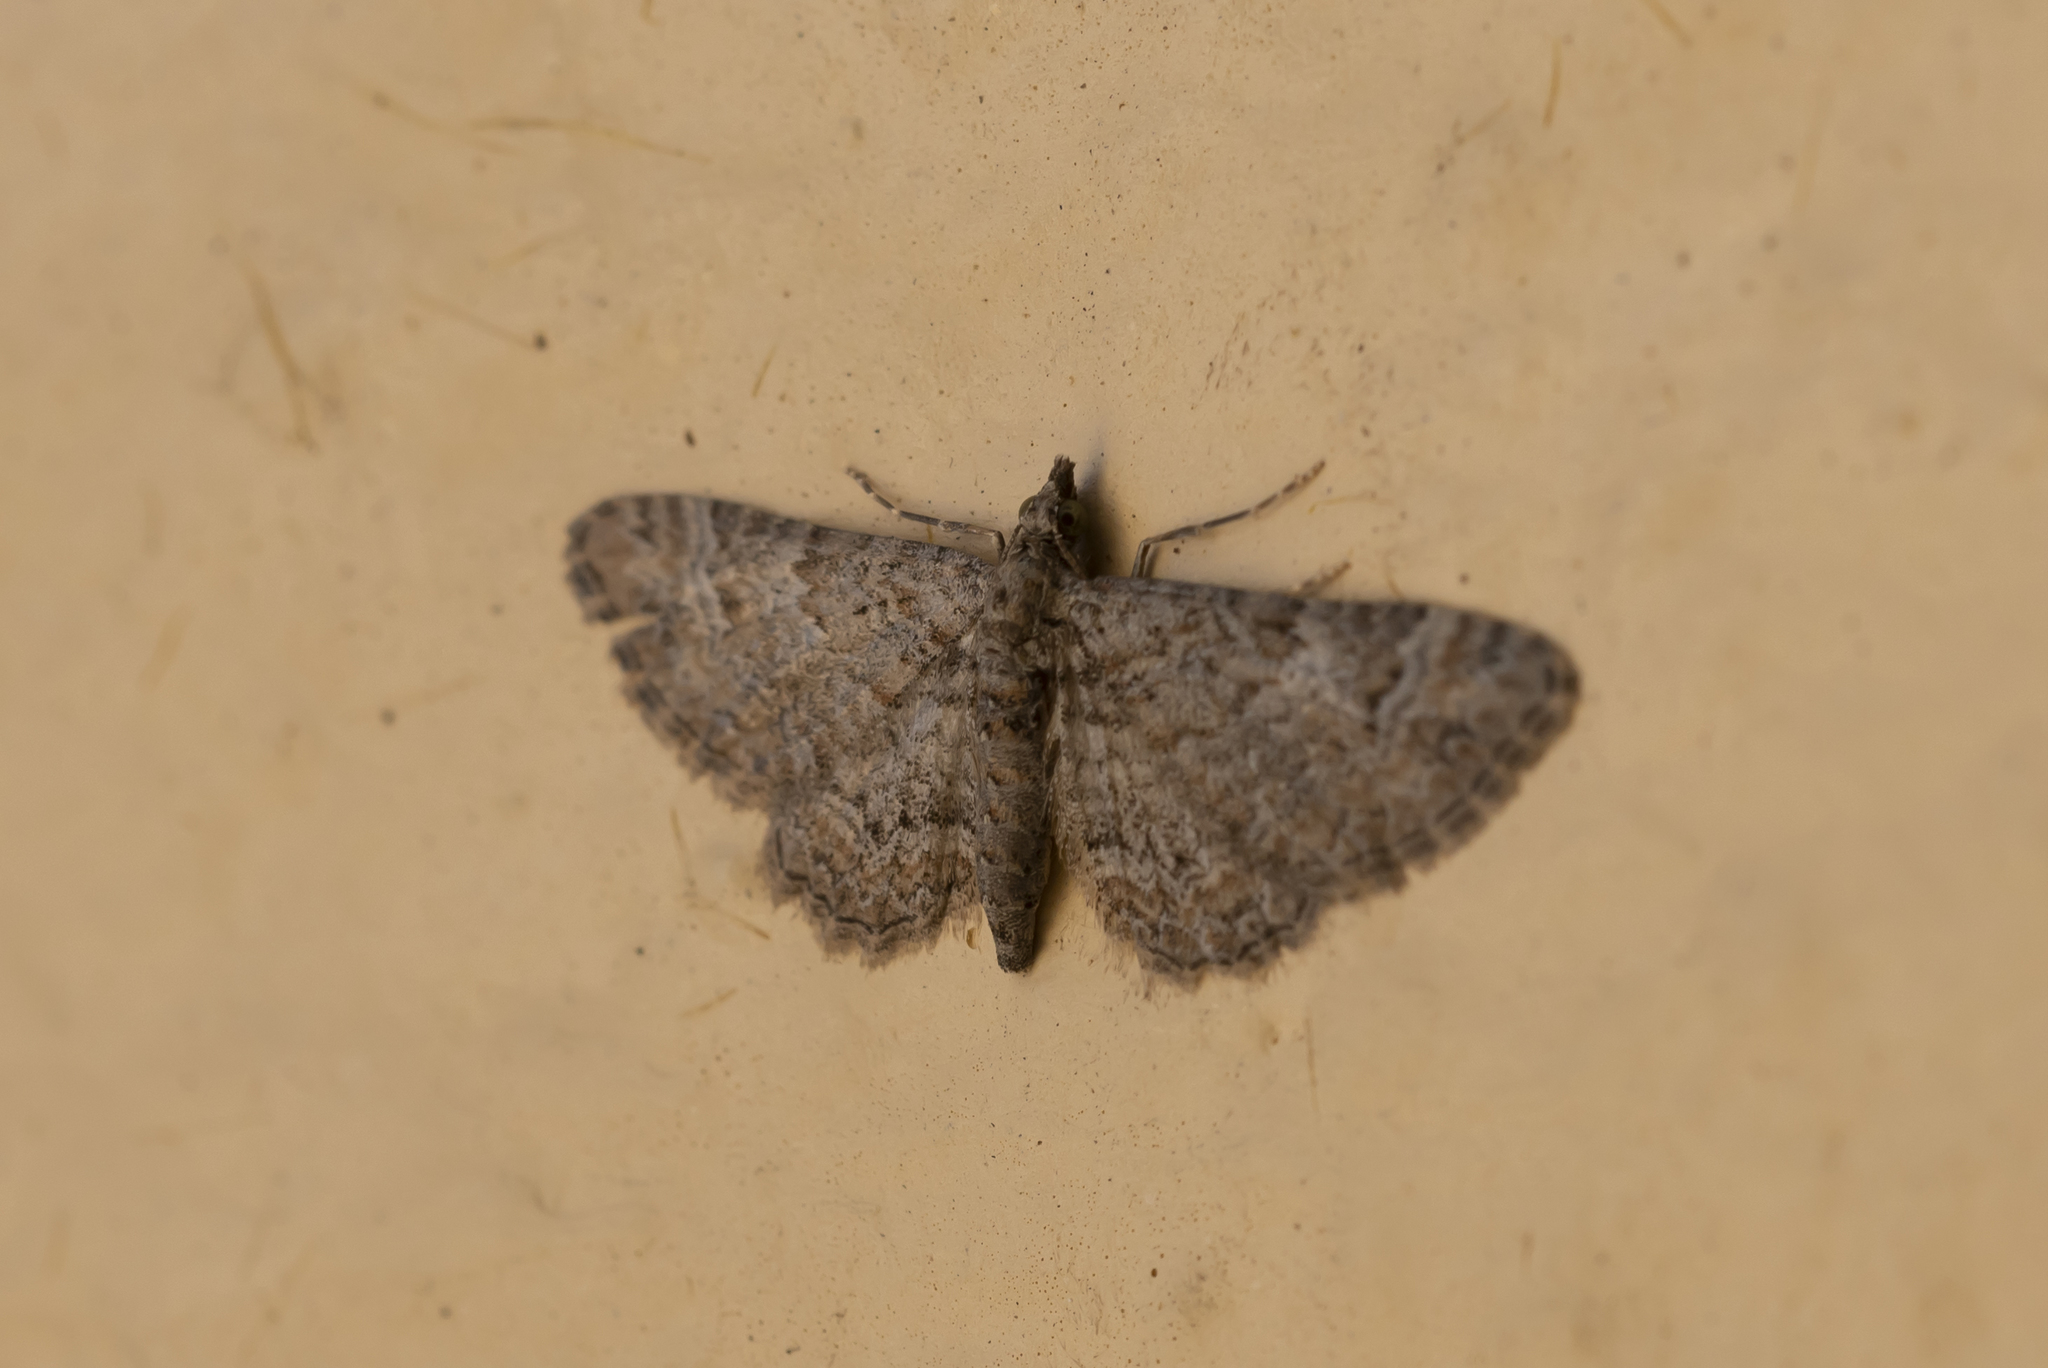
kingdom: Animalia
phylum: Arthropoda
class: Insecta
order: Lepidoptera
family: Geometridae
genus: Gymnoscelis
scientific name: Gymnoscelis rufifasciata
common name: Double-striped pug
